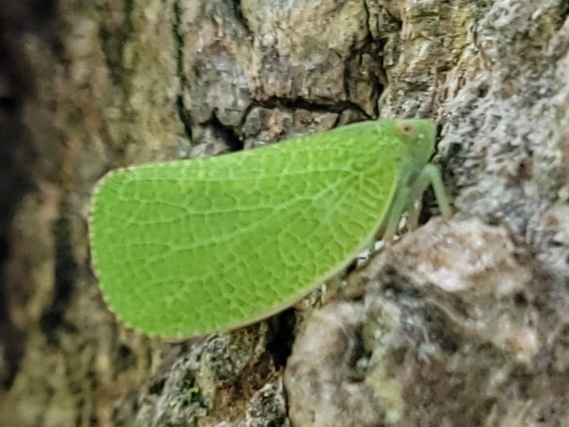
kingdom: Animalia
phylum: Arthropoda
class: Insecta
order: Hemiptera
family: Acanaloniidae
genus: Acanalonia
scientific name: Acanalonia conica
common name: Green cone-headed planthopper
